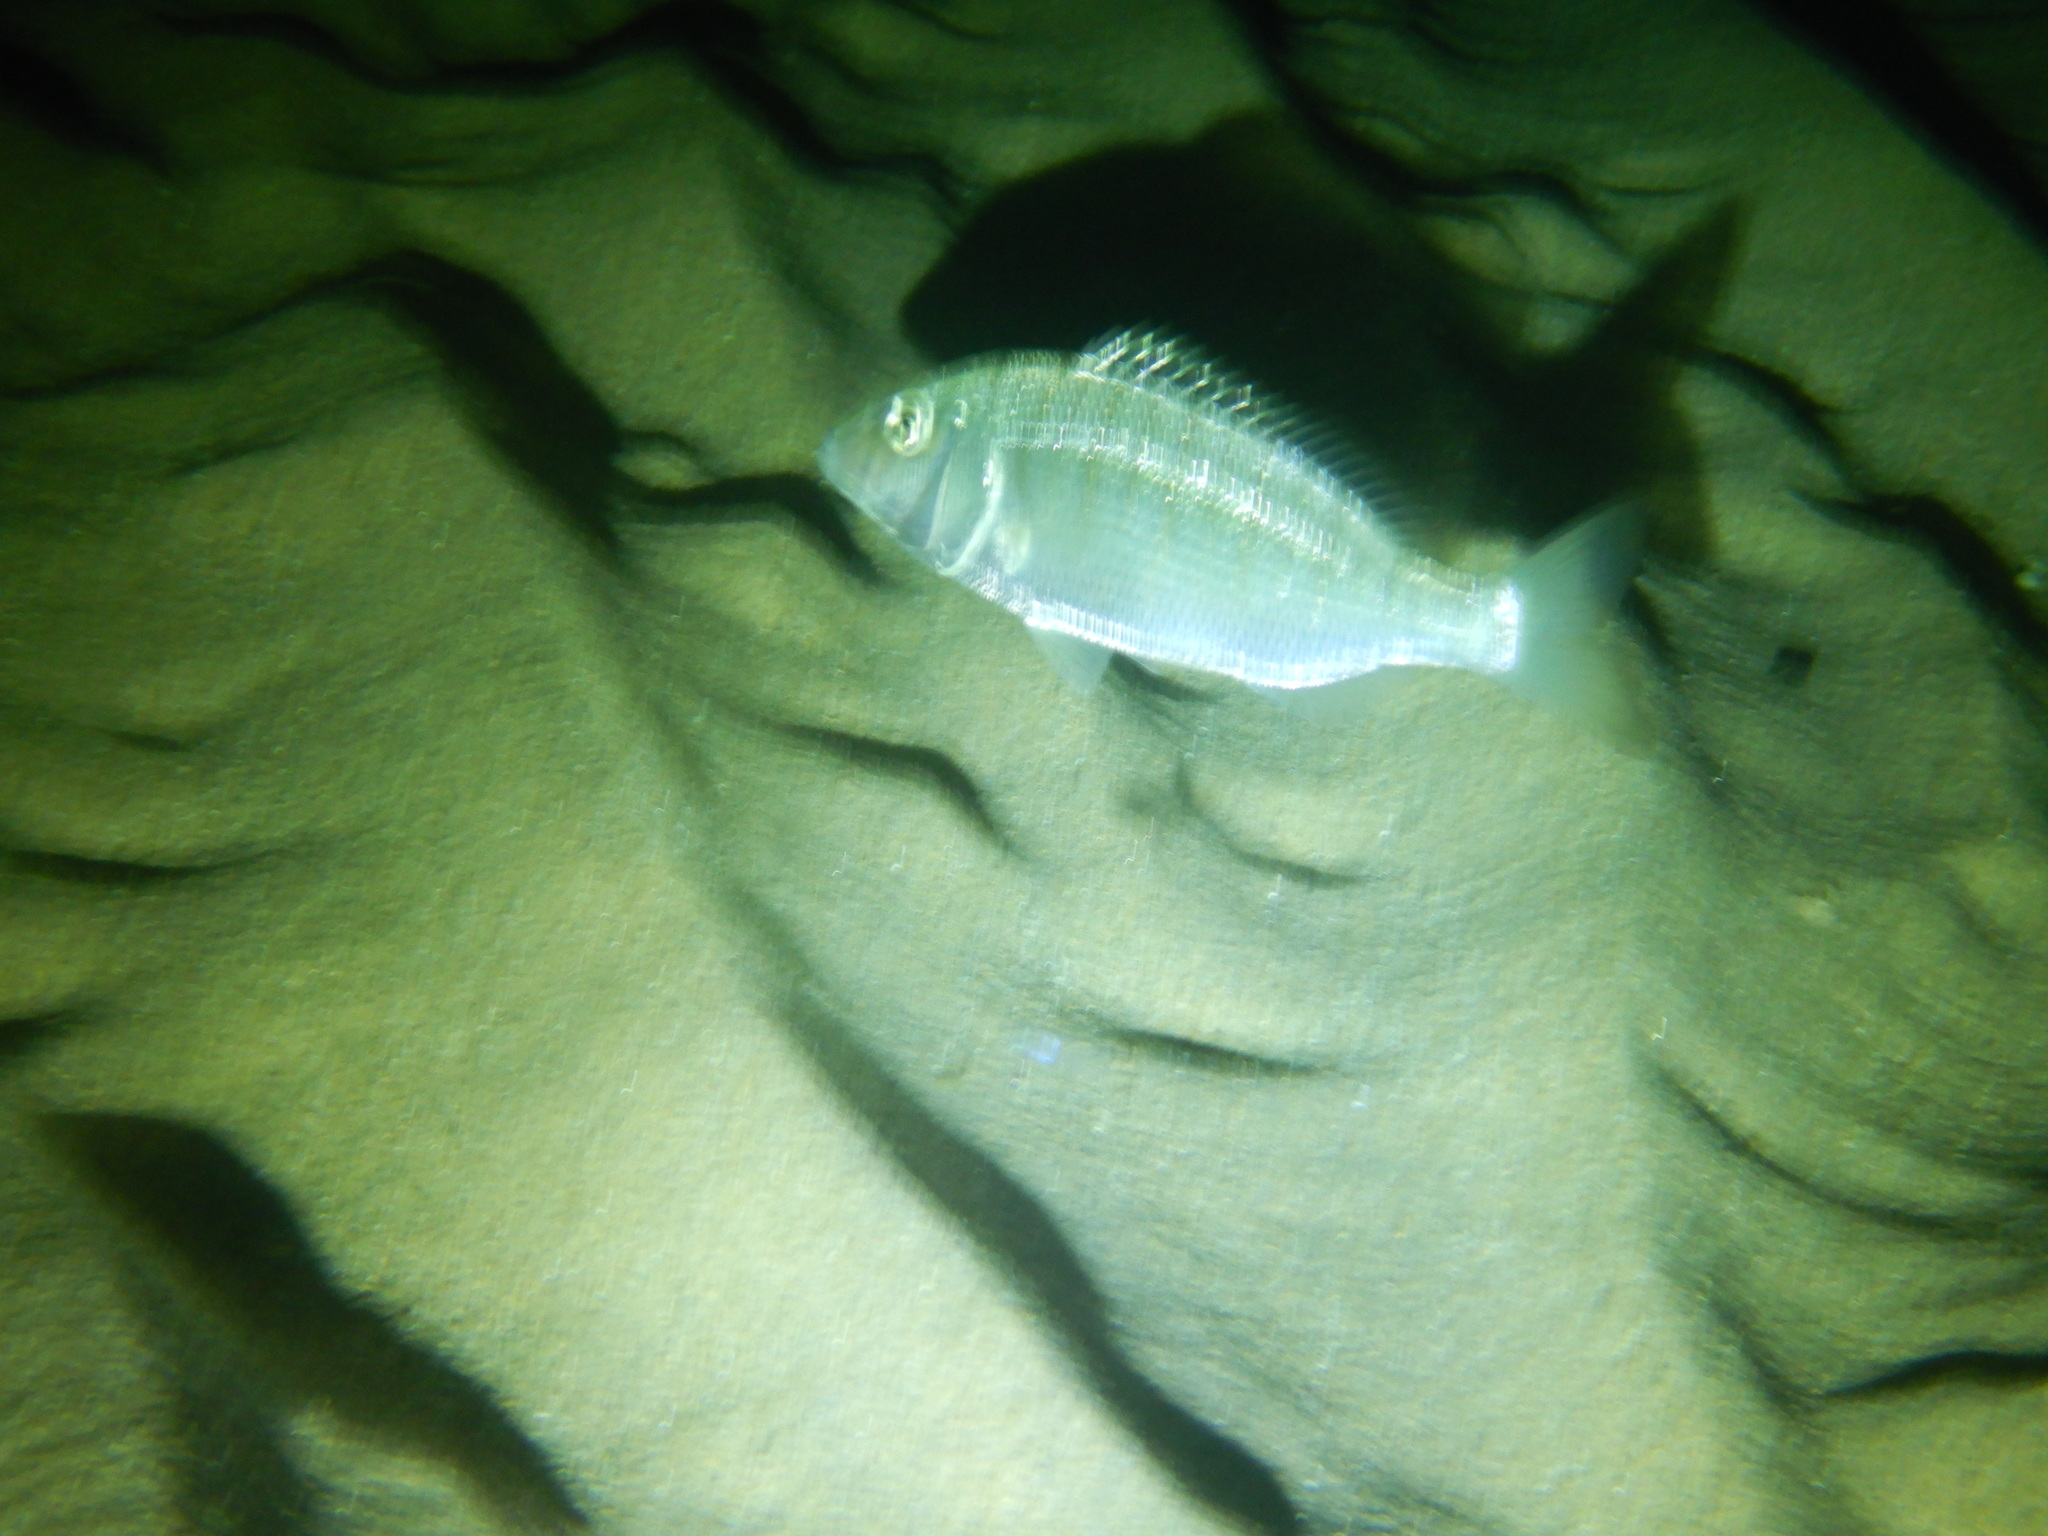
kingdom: Animalia
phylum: Chordata
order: Perciformes
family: Sparidae
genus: Lithognathus
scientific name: Lithognathus mormyrus
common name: Sand steenbras
